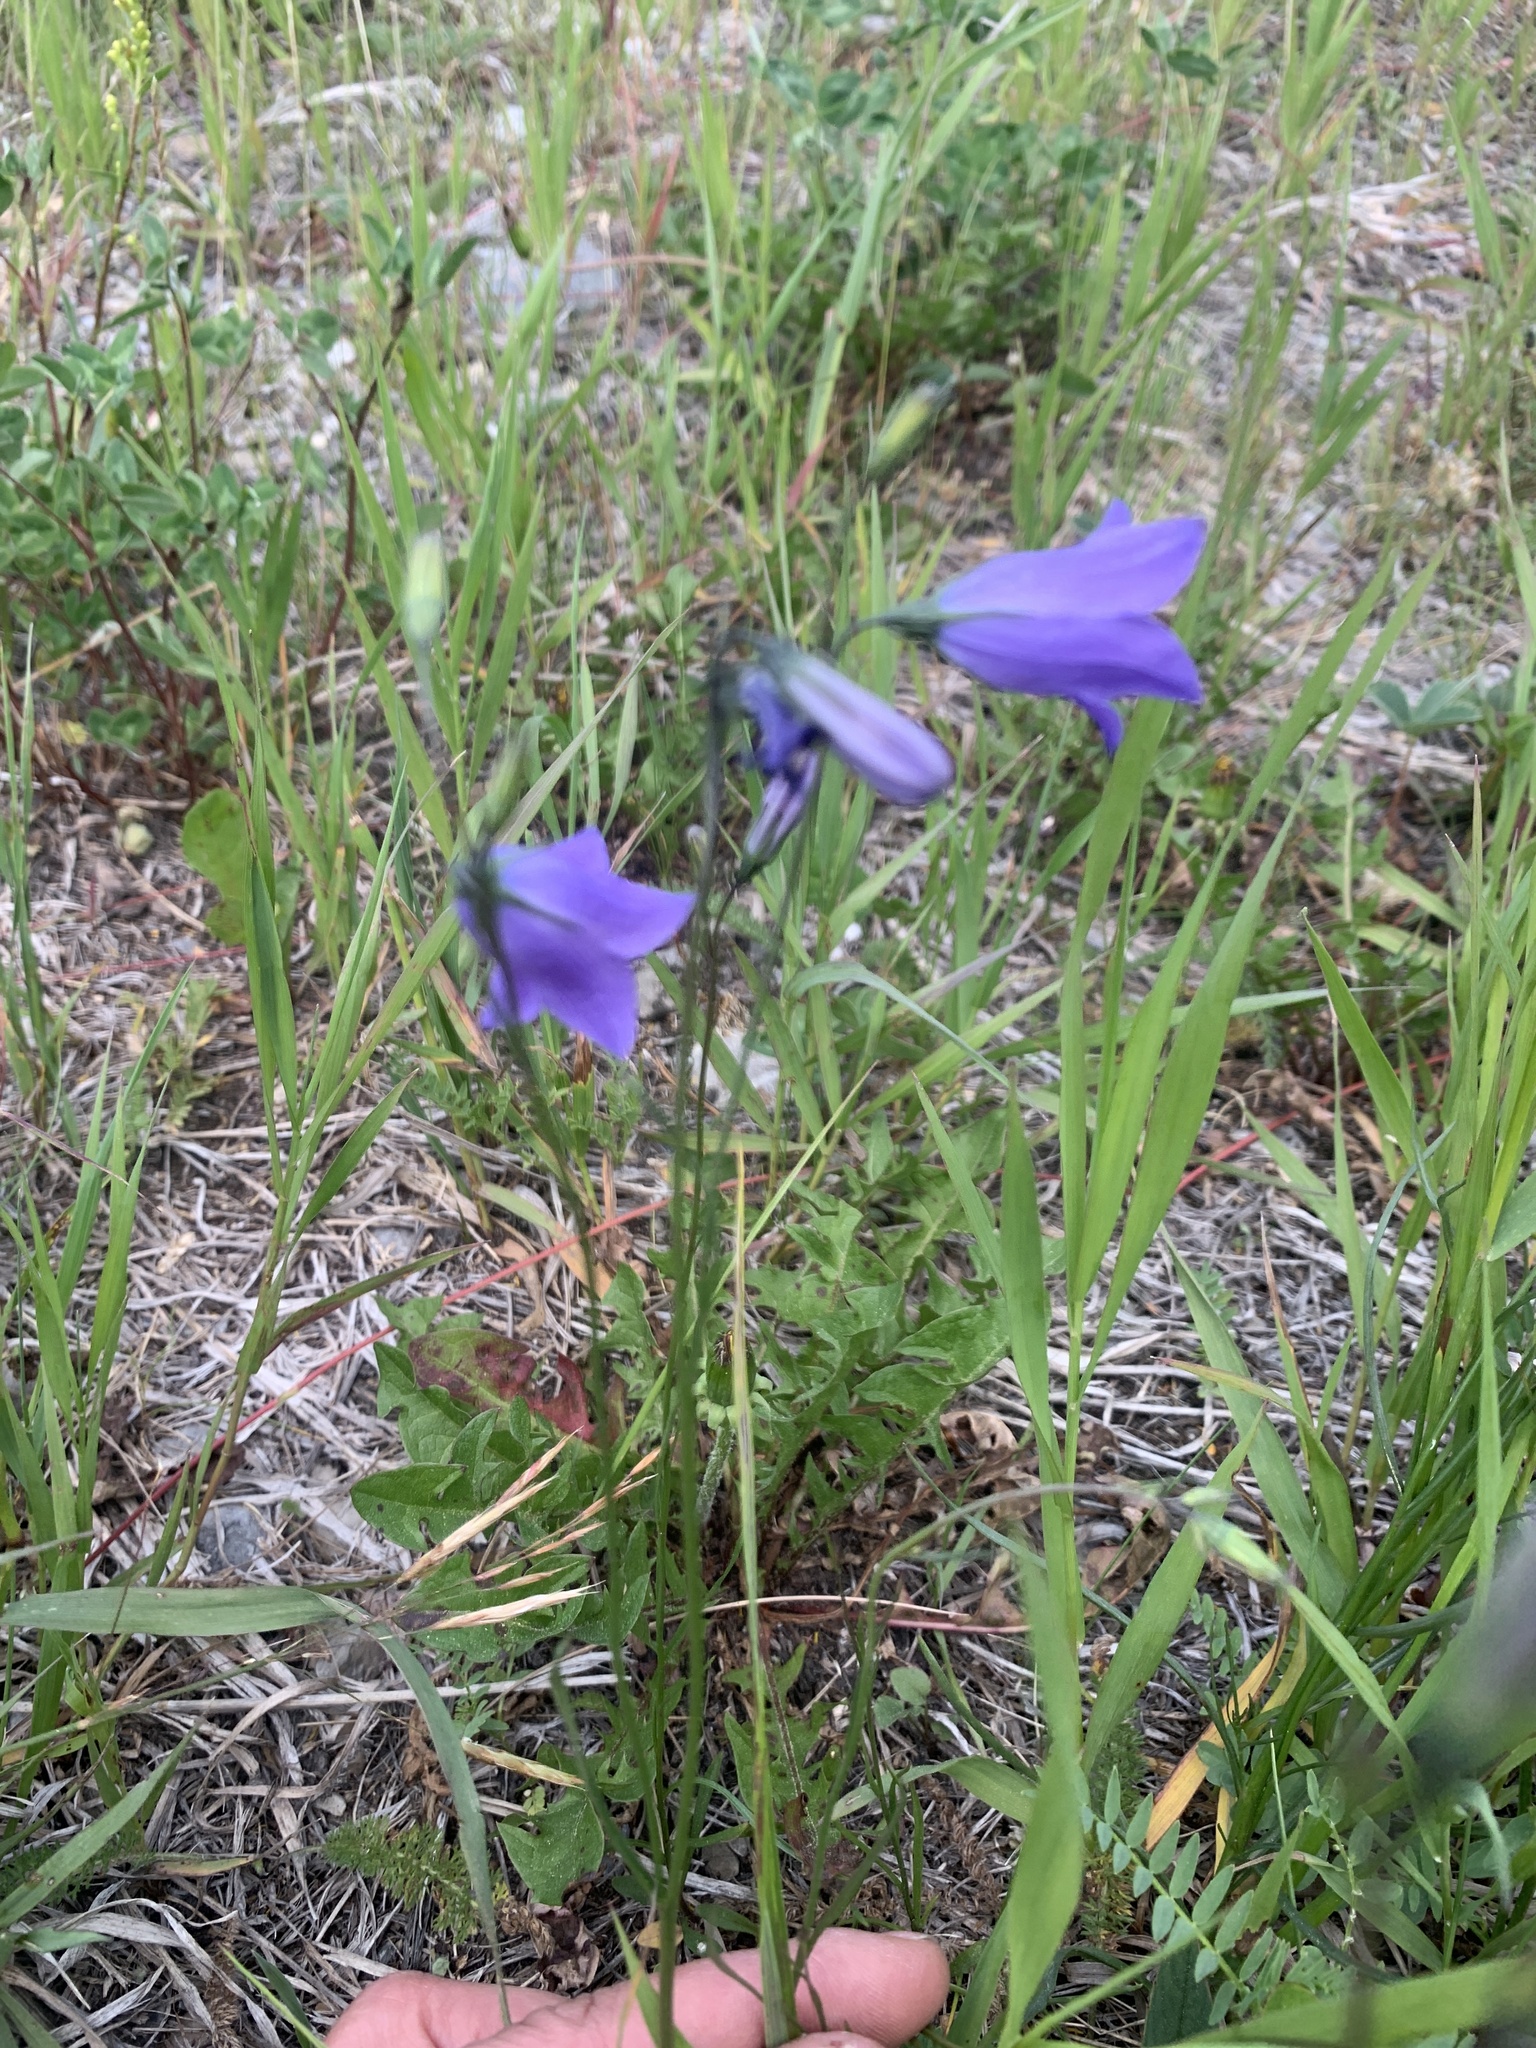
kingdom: Plantae
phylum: Tracheophyta
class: Magnoliopsida
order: Asterales
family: Campanulaceae
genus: Campanula
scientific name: Campanula alaskana
